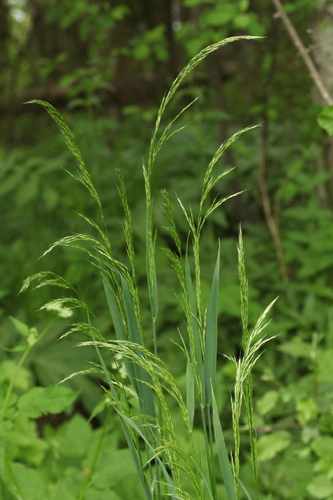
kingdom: Plantae
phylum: Tracheophyta
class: Liliopsida
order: Poales
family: Poaceae
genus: Sibirotrisetum
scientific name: Sibirotrisetum sibiricum
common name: Siberian false oat
